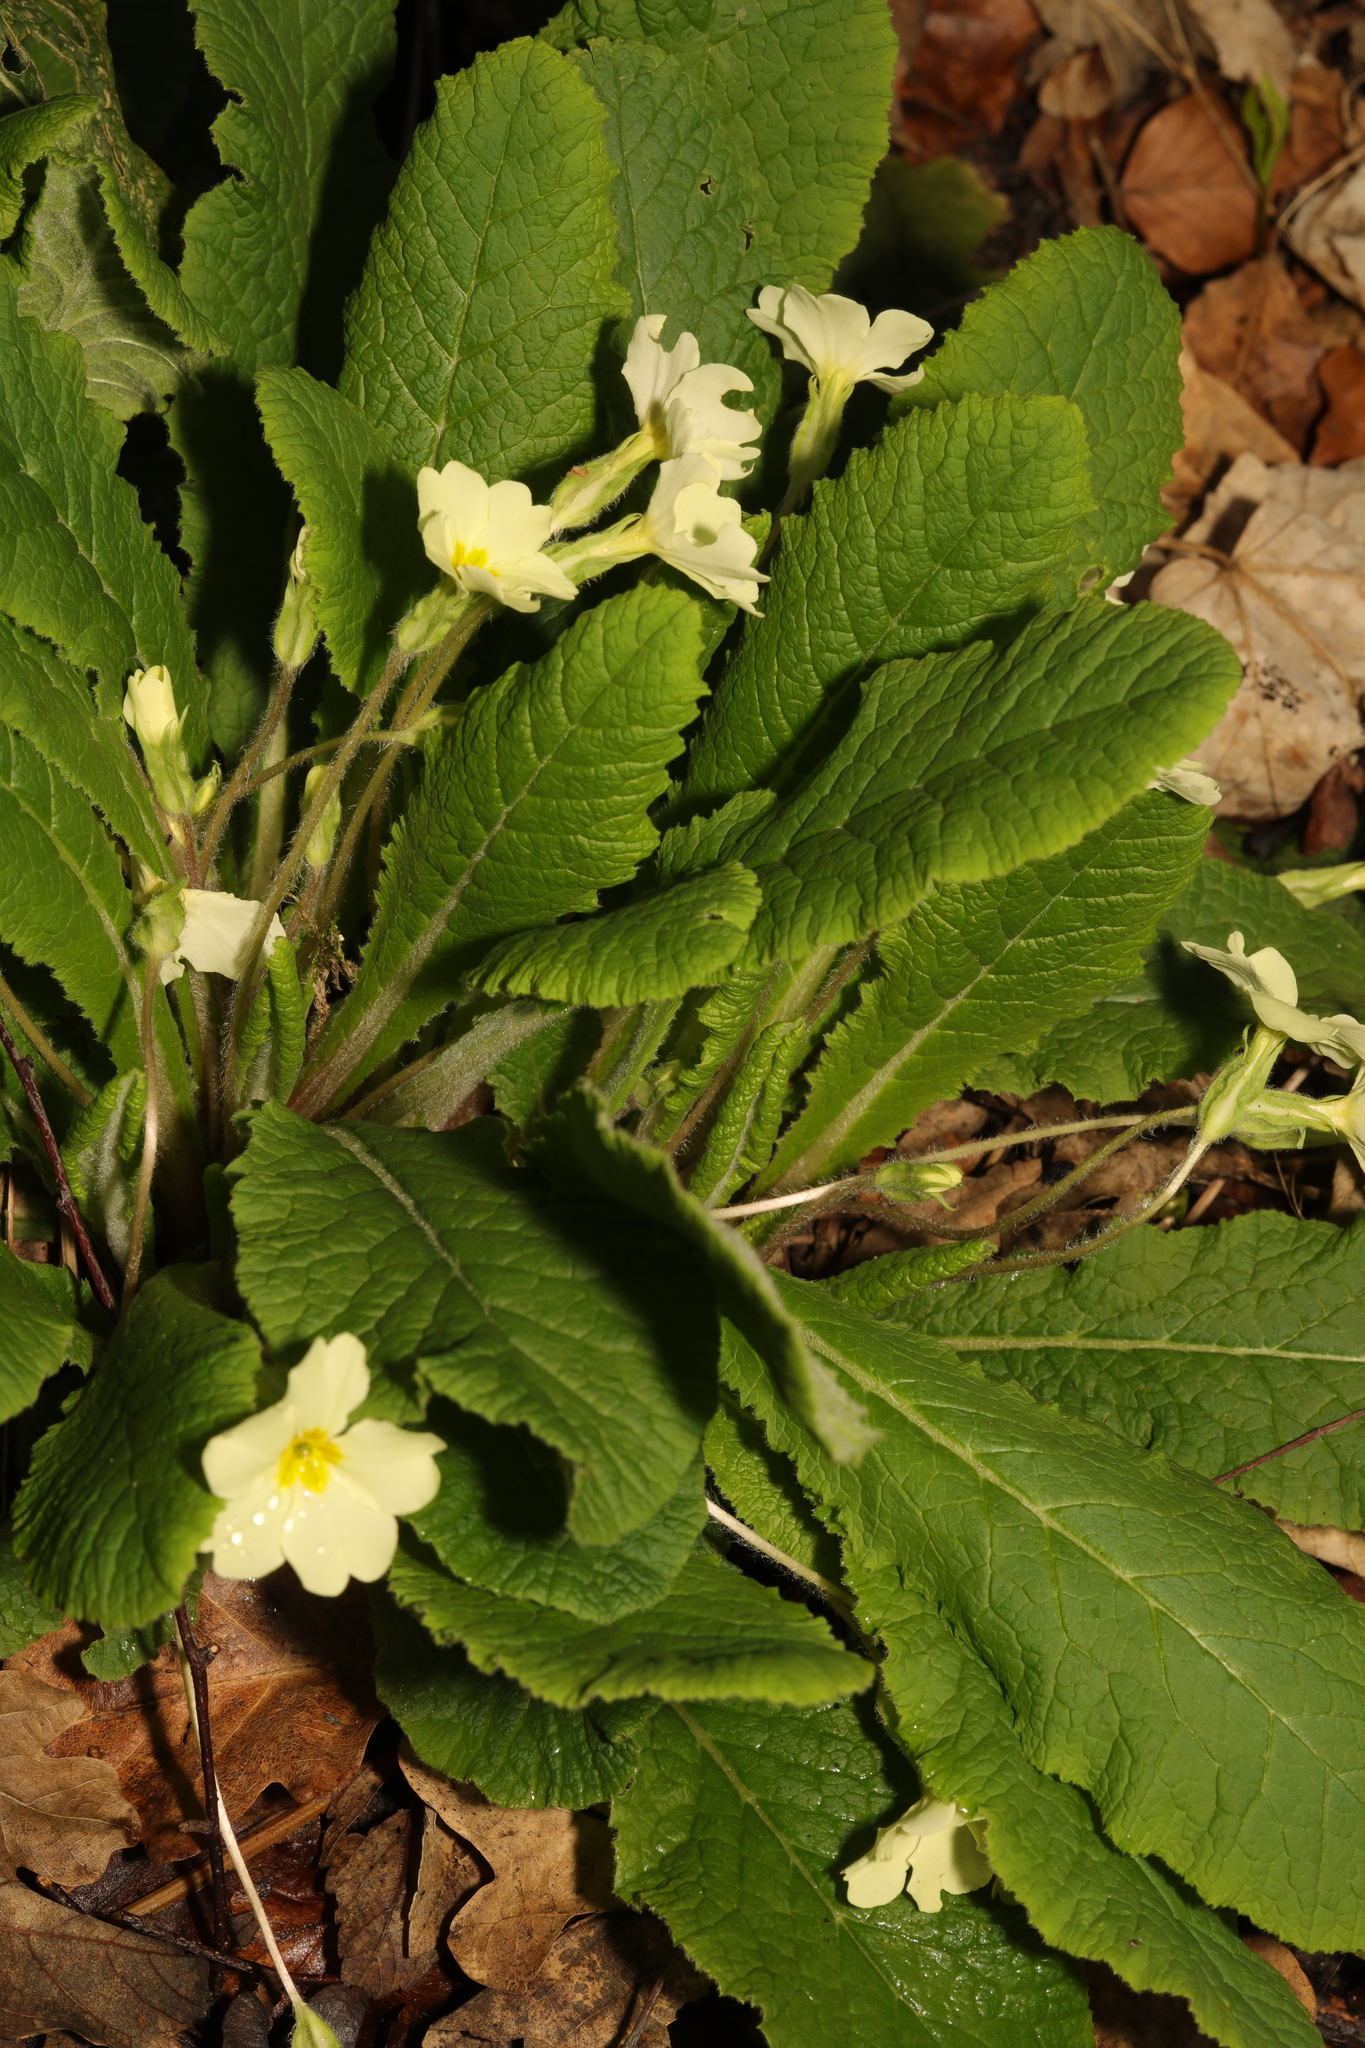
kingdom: Plantae
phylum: Tracheophyta
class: Magnoliopsida
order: Ericales
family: Primulaceae
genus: Primula
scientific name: Primula vulgaris
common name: Primrose
